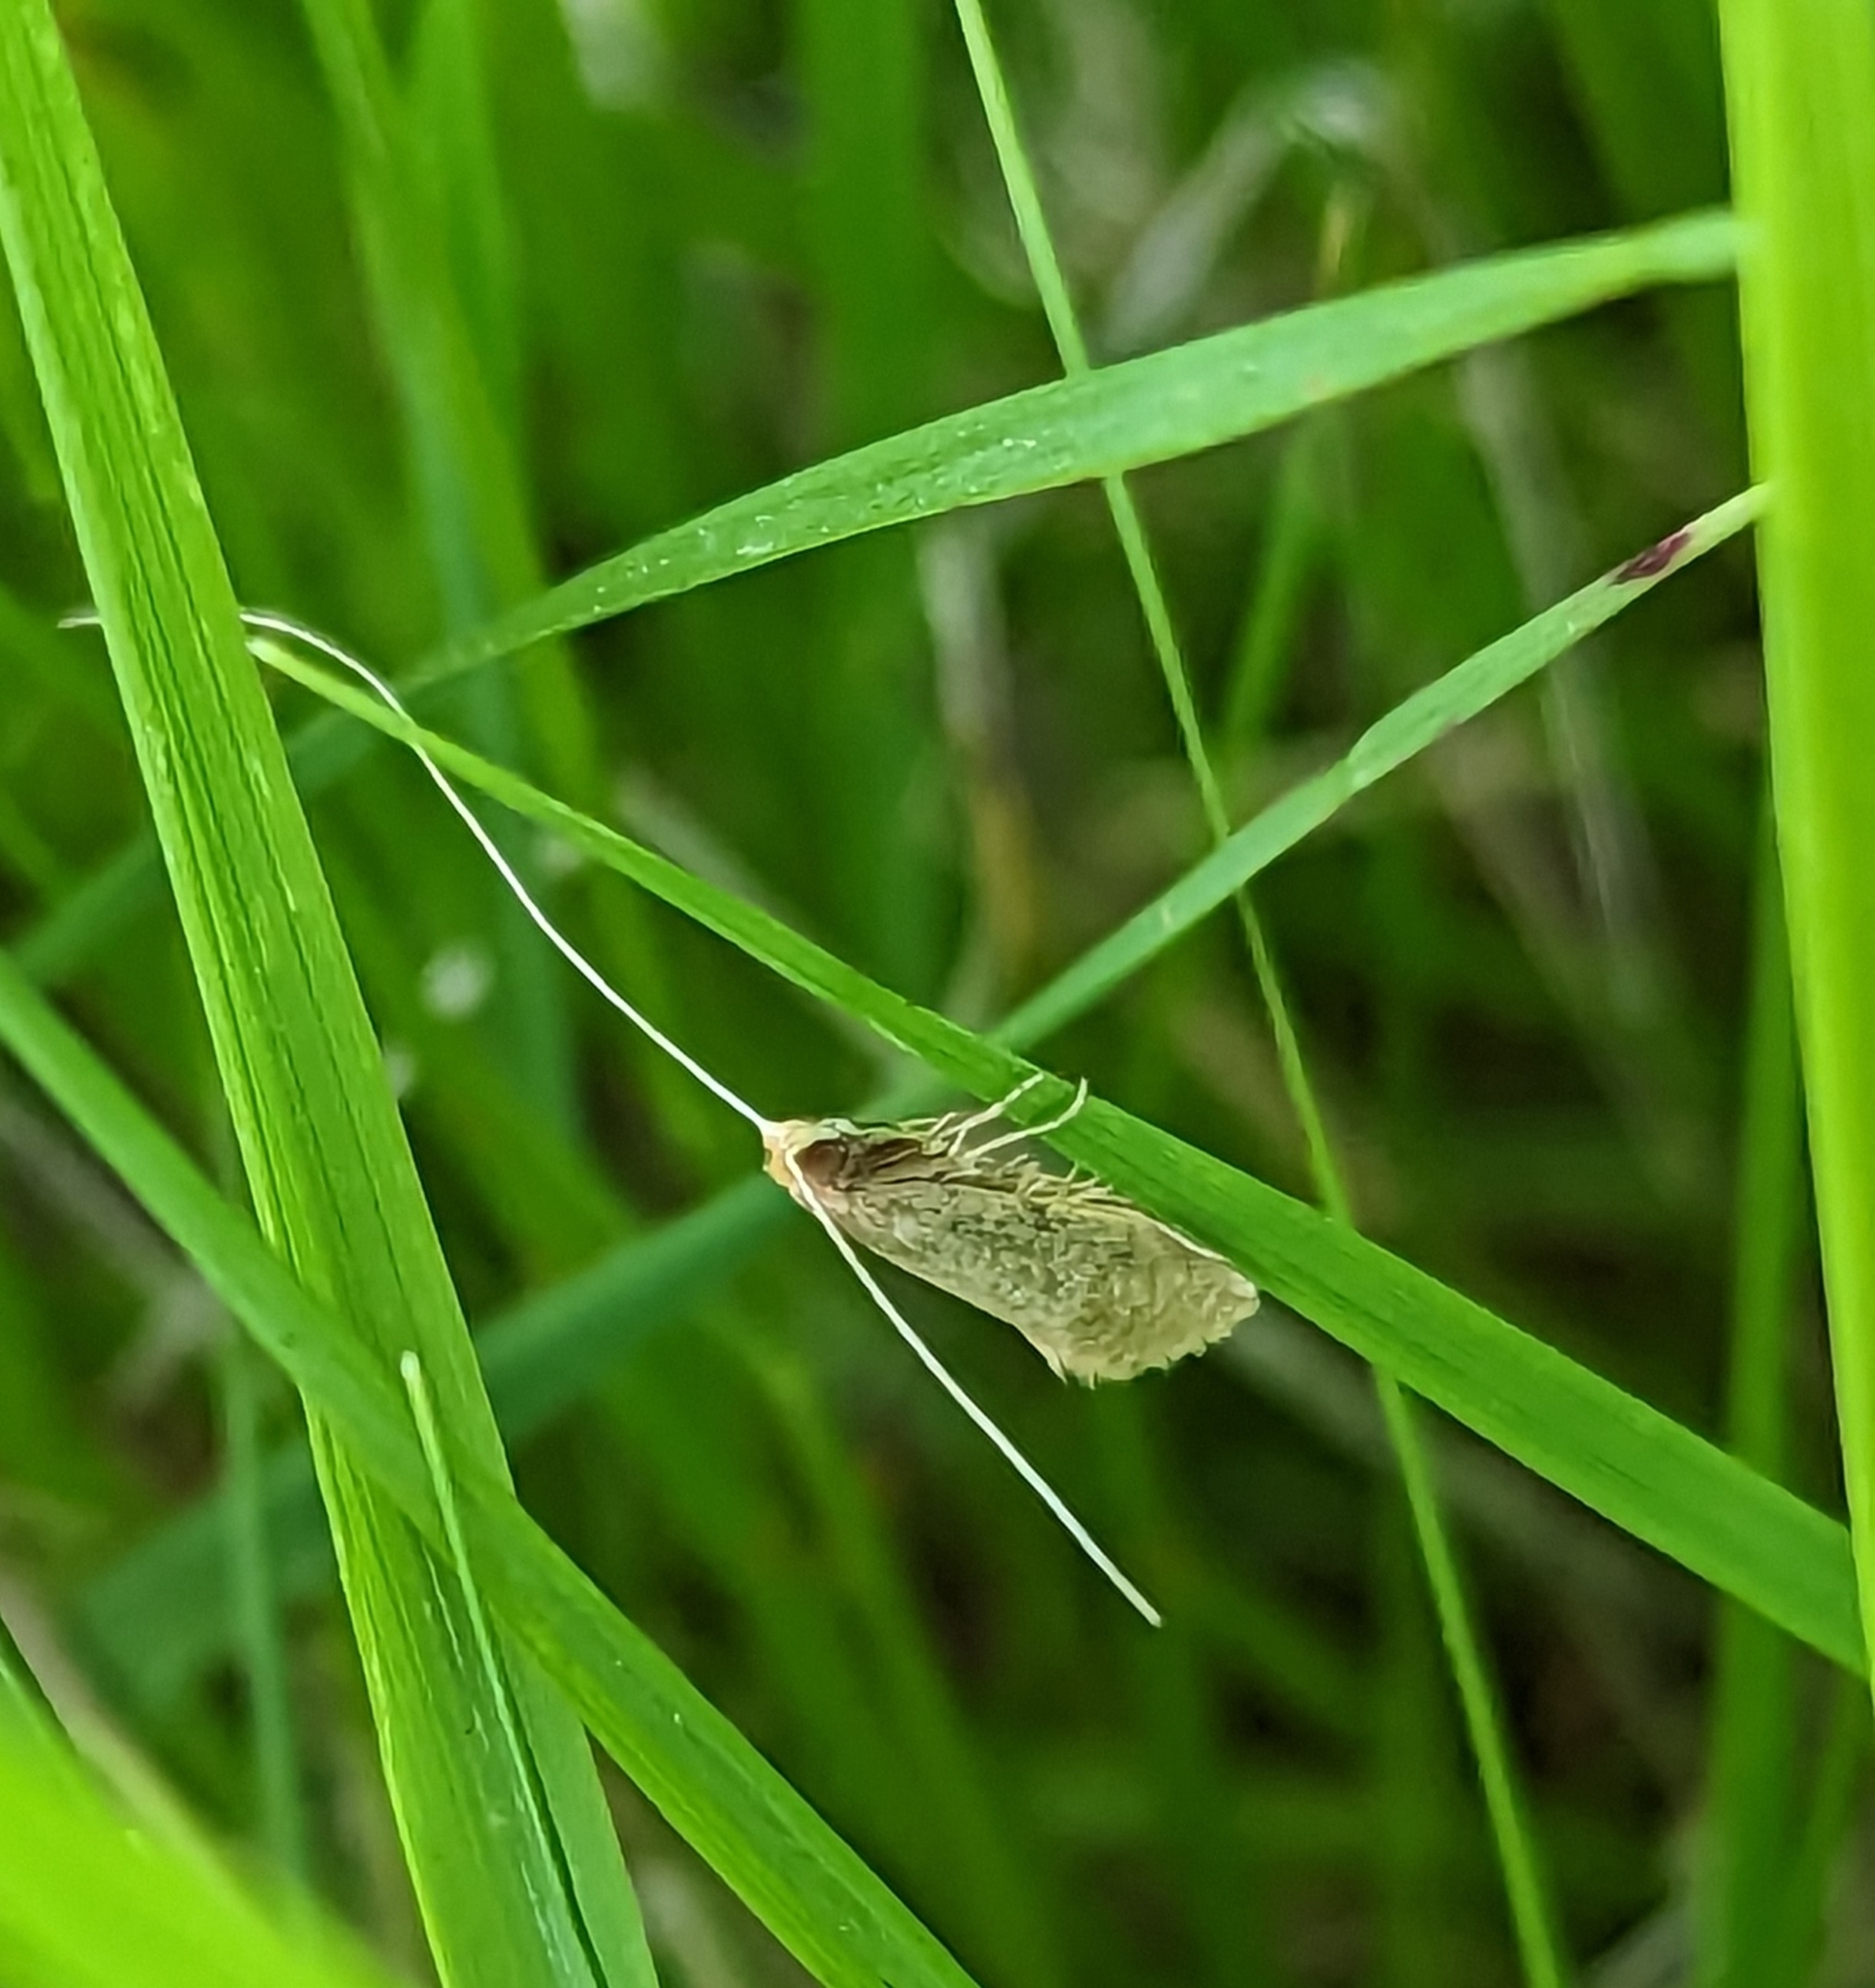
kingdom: Animalia
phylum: Arthropoda
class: Insecta
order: Lepidoptera
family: Adelidae
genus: Nematopogon
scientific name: Nematopogon swammerdamella
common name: Large long-horn
